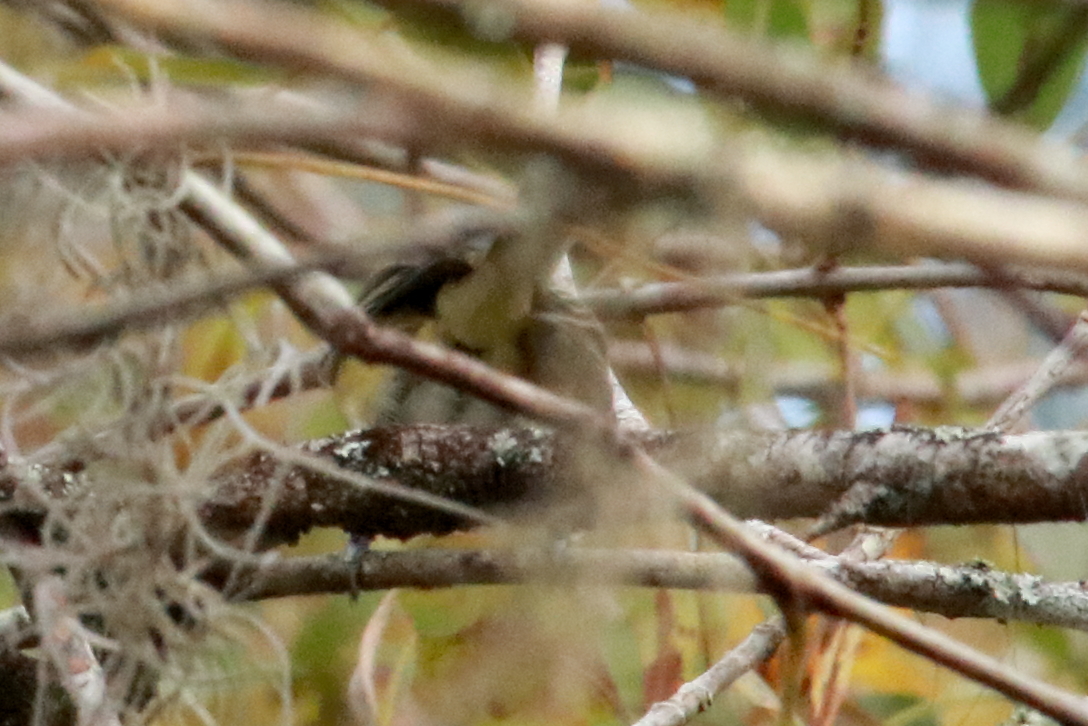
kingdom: Animalia
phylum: Chordata
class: Aves
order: Passeriformes
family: Parulidae
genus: Setophaga
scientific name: Setophaga pinus
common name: Pine warbler
